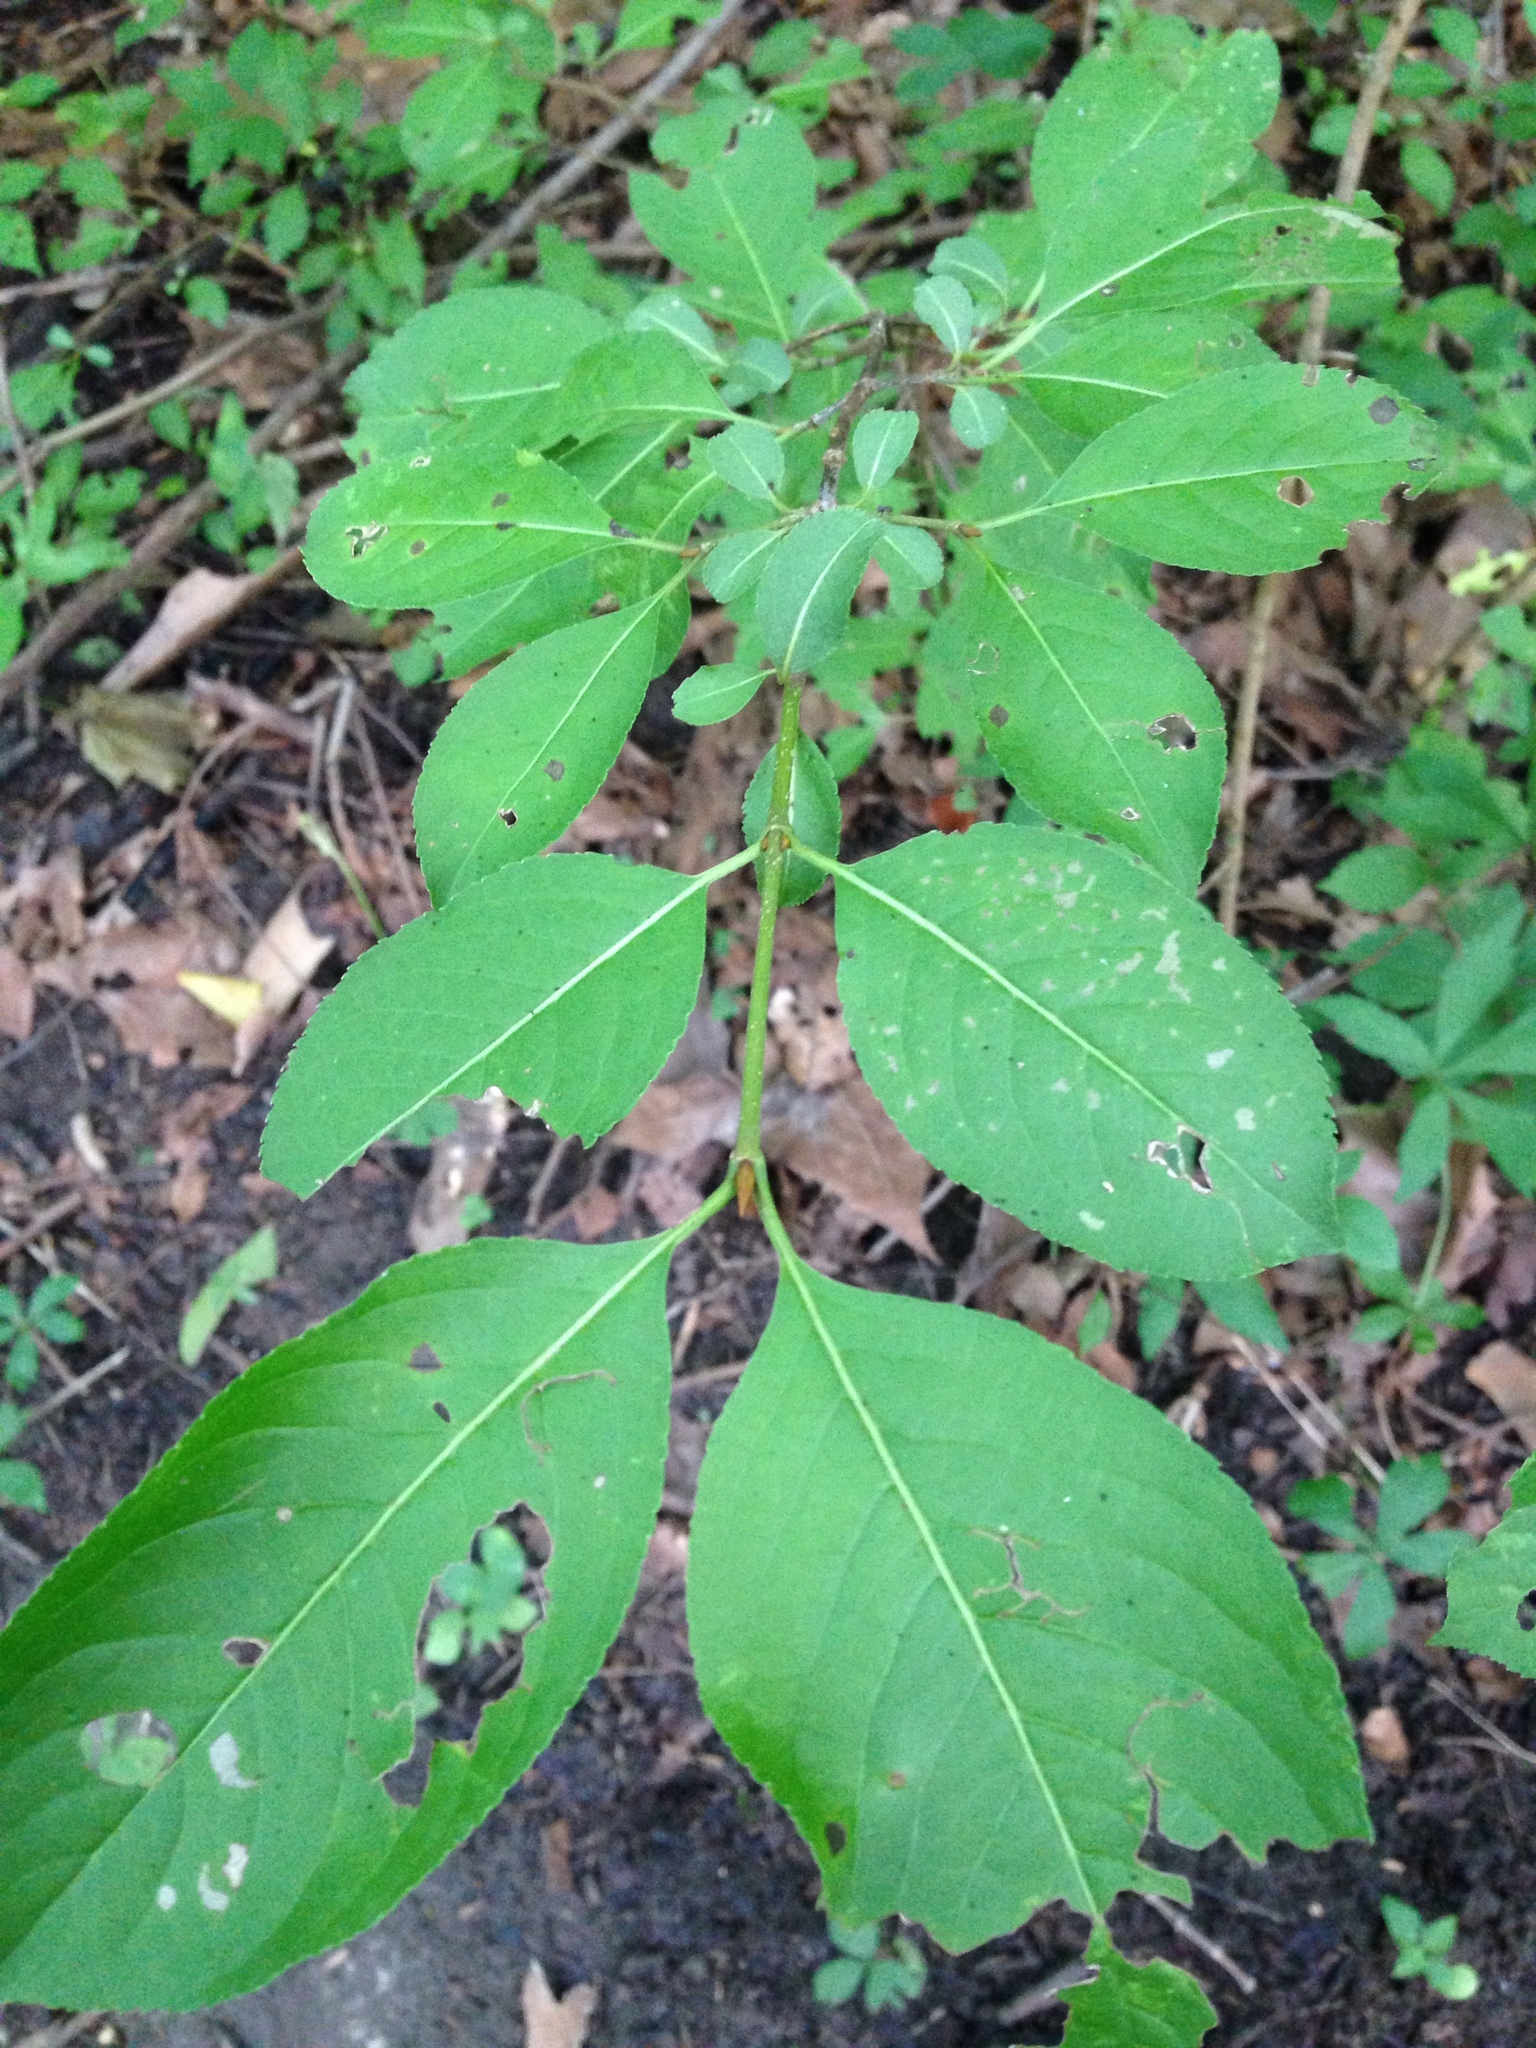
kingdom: Plantae
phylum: Tracheophyta
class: Magnoliopsida
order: Dipsacales
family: Viburnaceae
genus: Viburnum
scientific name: Viburnum prunifolium
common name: Black haw
